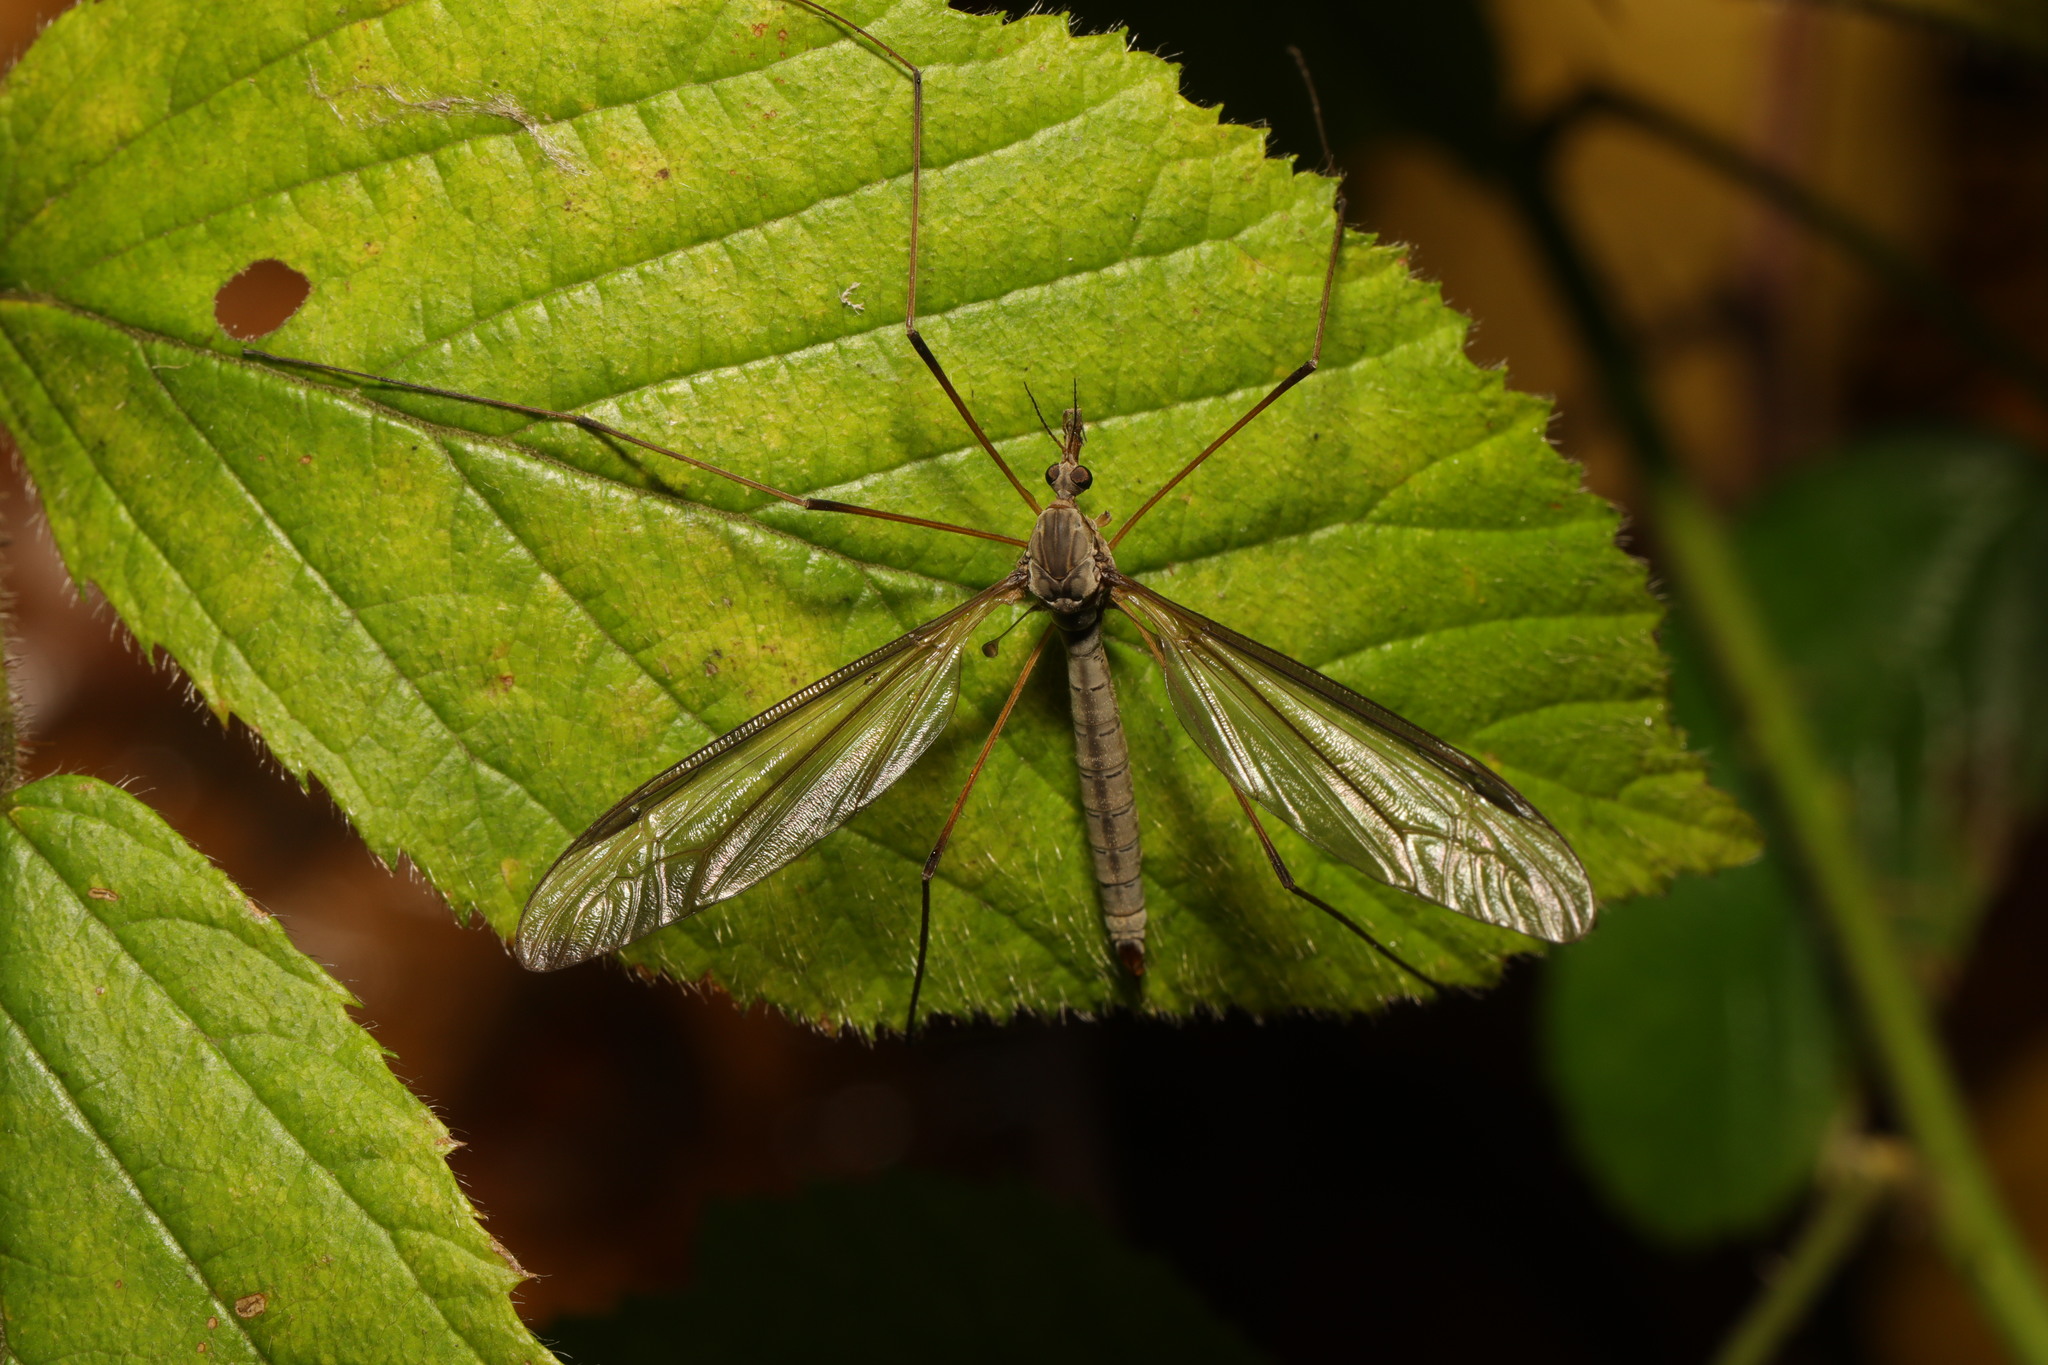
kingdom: Animalia
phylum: Arthropoda
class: Insecta
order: Diptera
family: Tipulidae
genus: Tipula
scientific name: Tipula paludosa
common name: European cranefly
